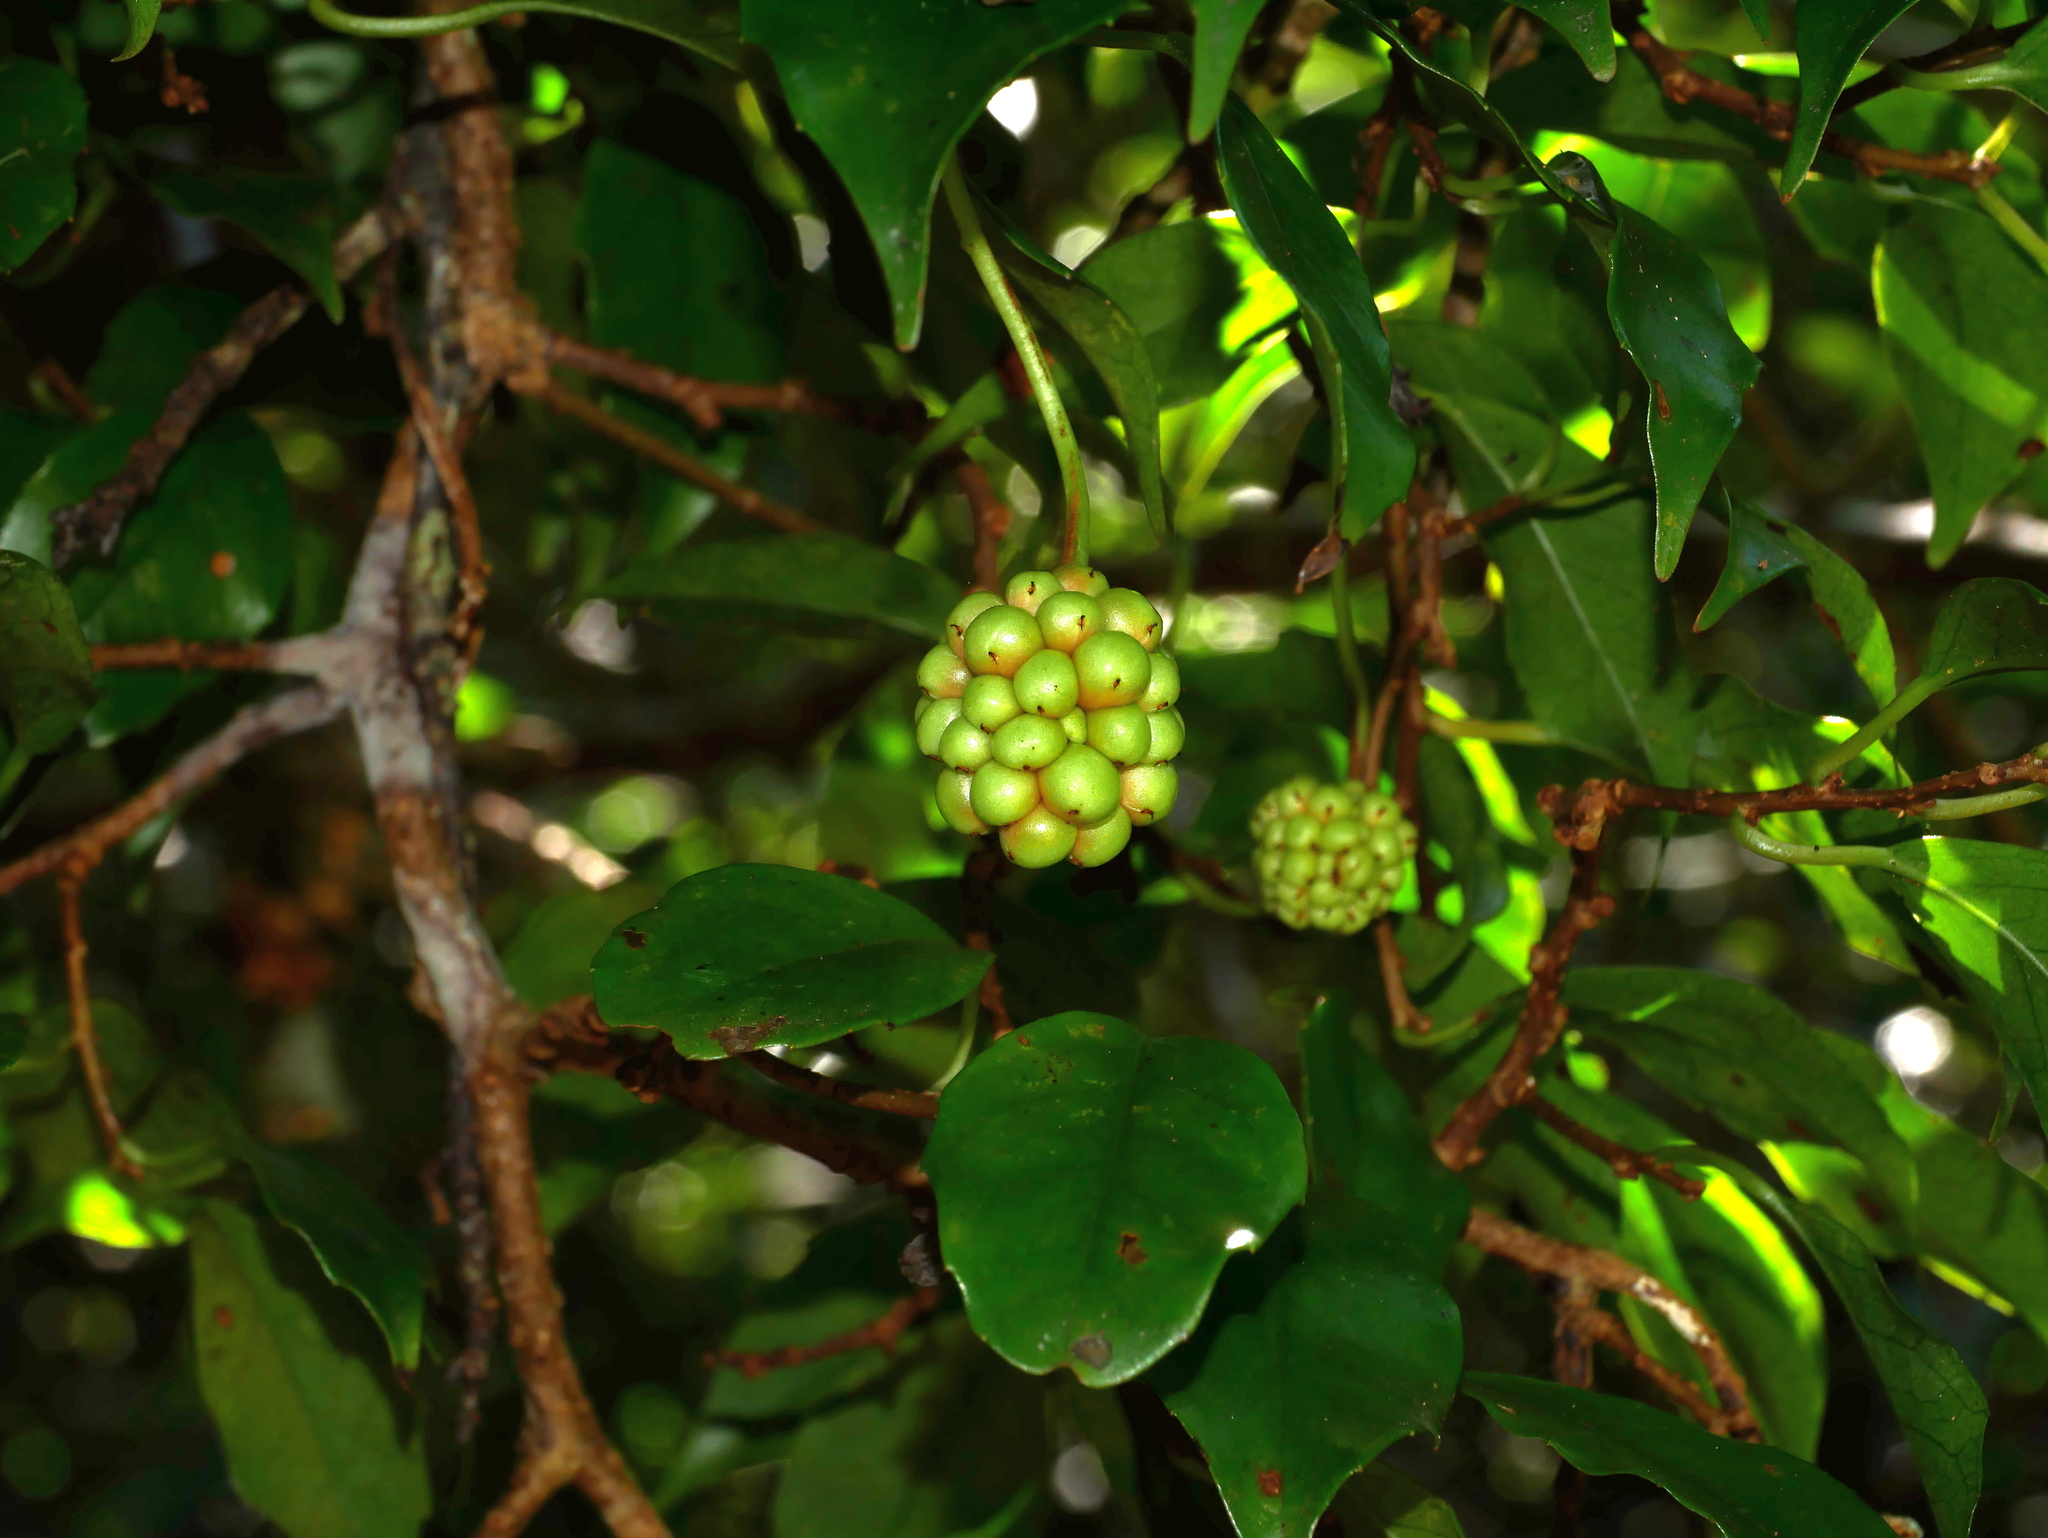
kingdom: Plantae
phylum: Tracheophyta
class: Magnoliopsida
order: Austrobaileyales
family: Schisandraceae
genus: Kadsura
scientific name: Kadsura matsudae
